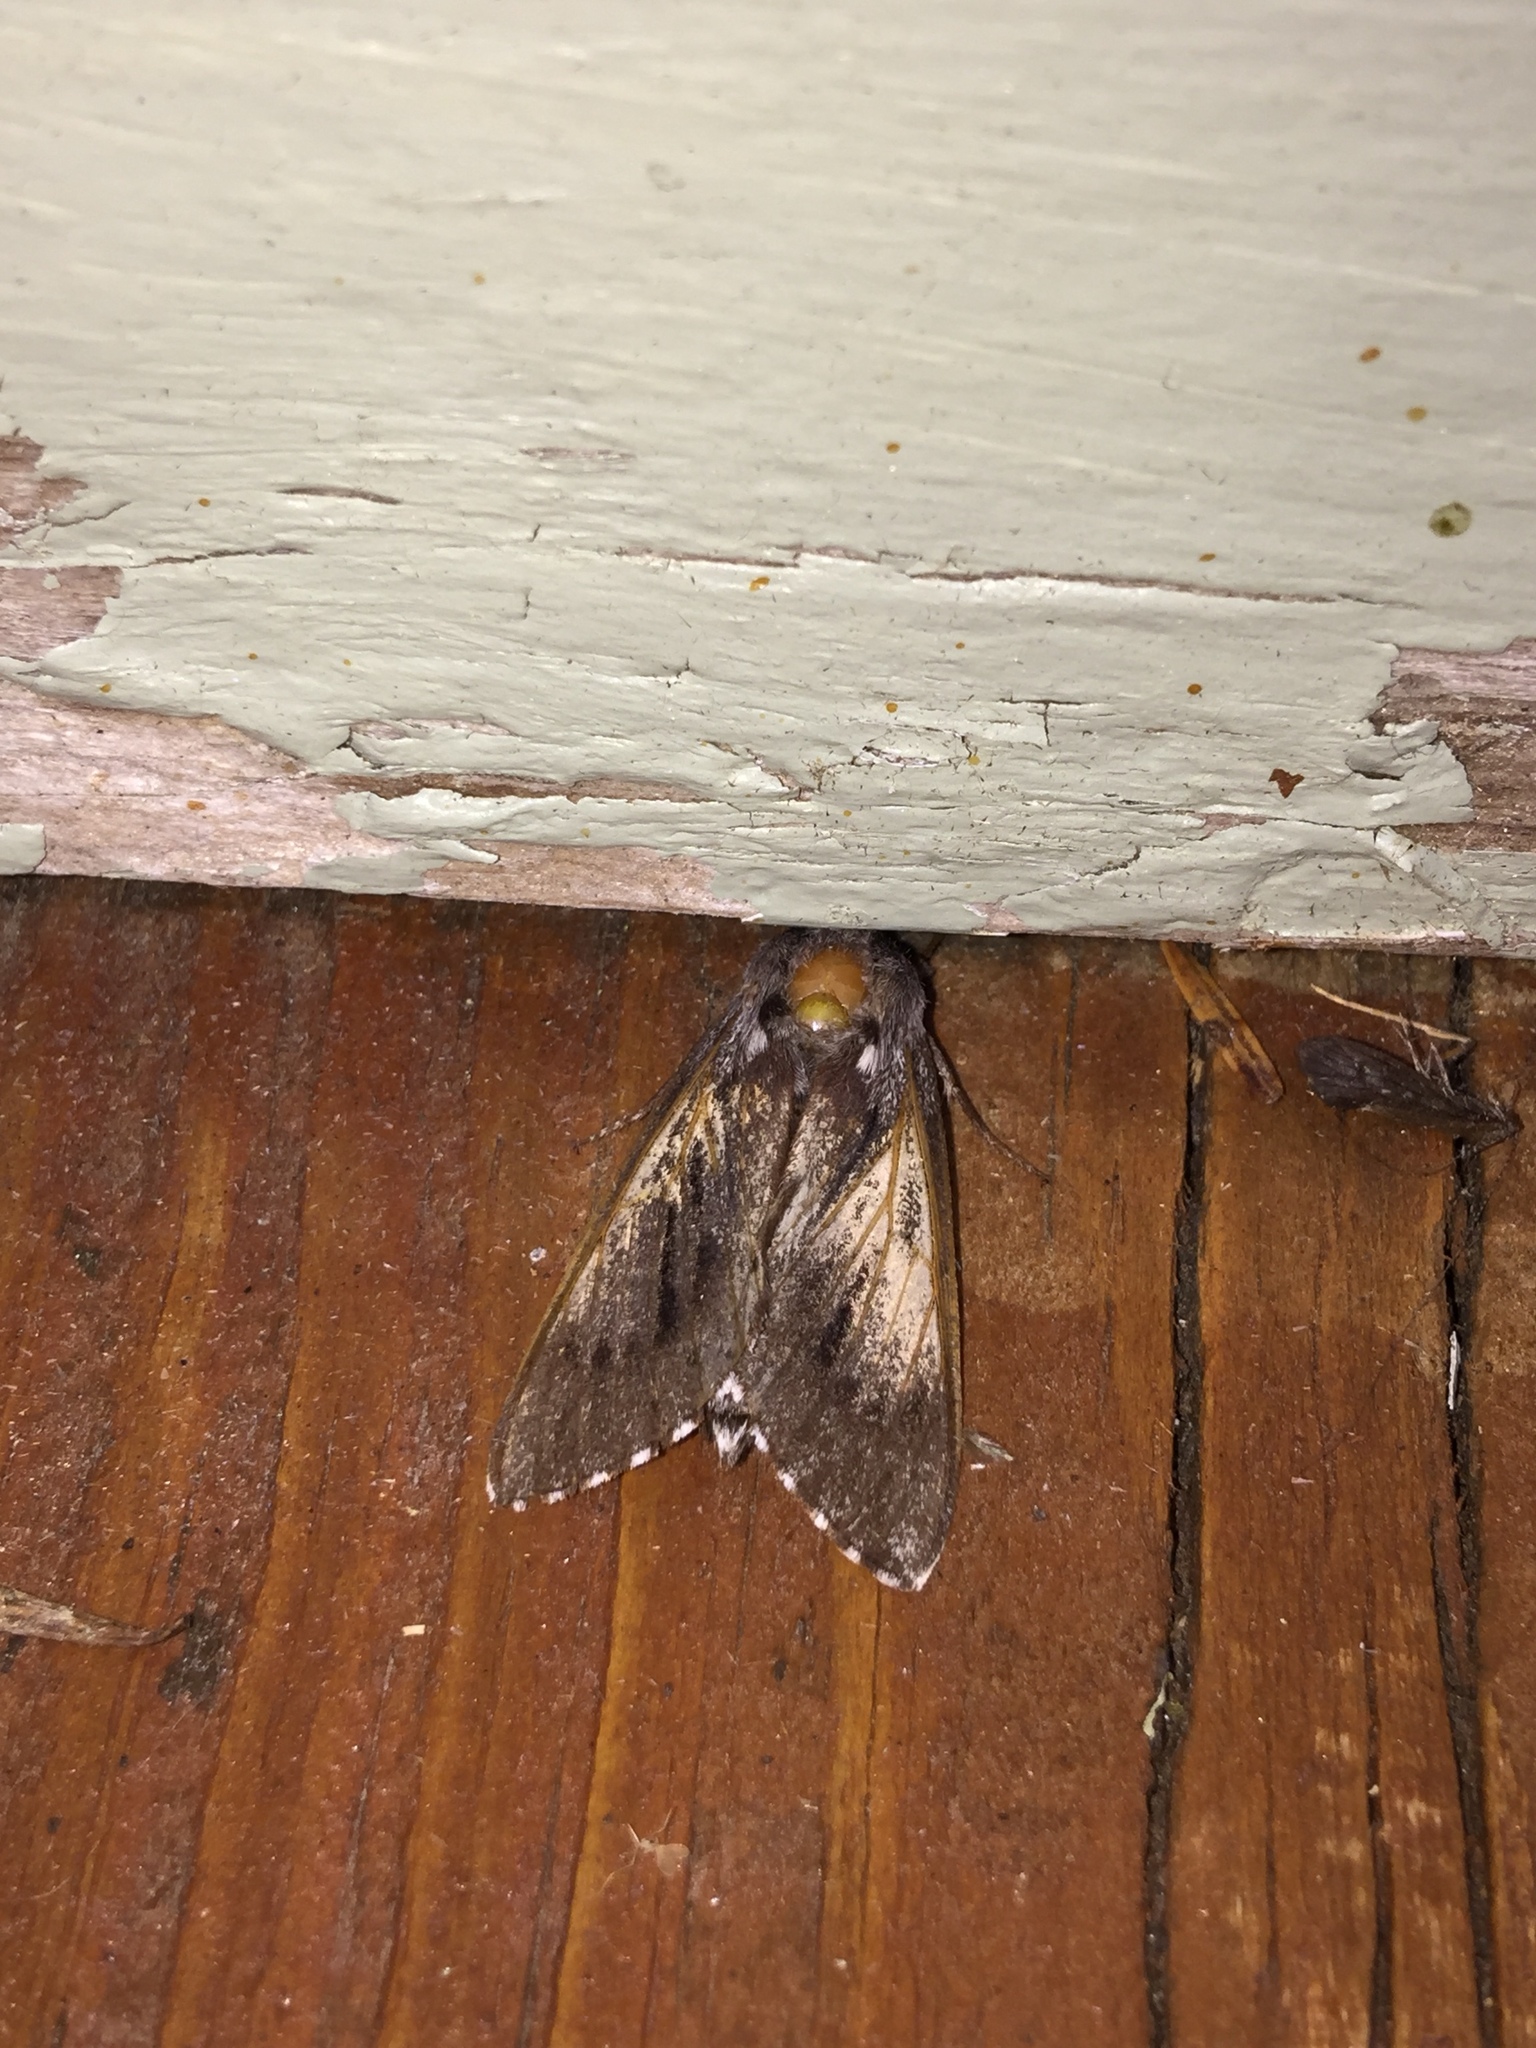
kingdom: Animalia
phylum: Arthropoda
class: Insecta
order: Lepidoptera
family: Sphingidae
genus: Lapara
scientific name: Lapara bombycoides
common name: Northern pine sphinx
